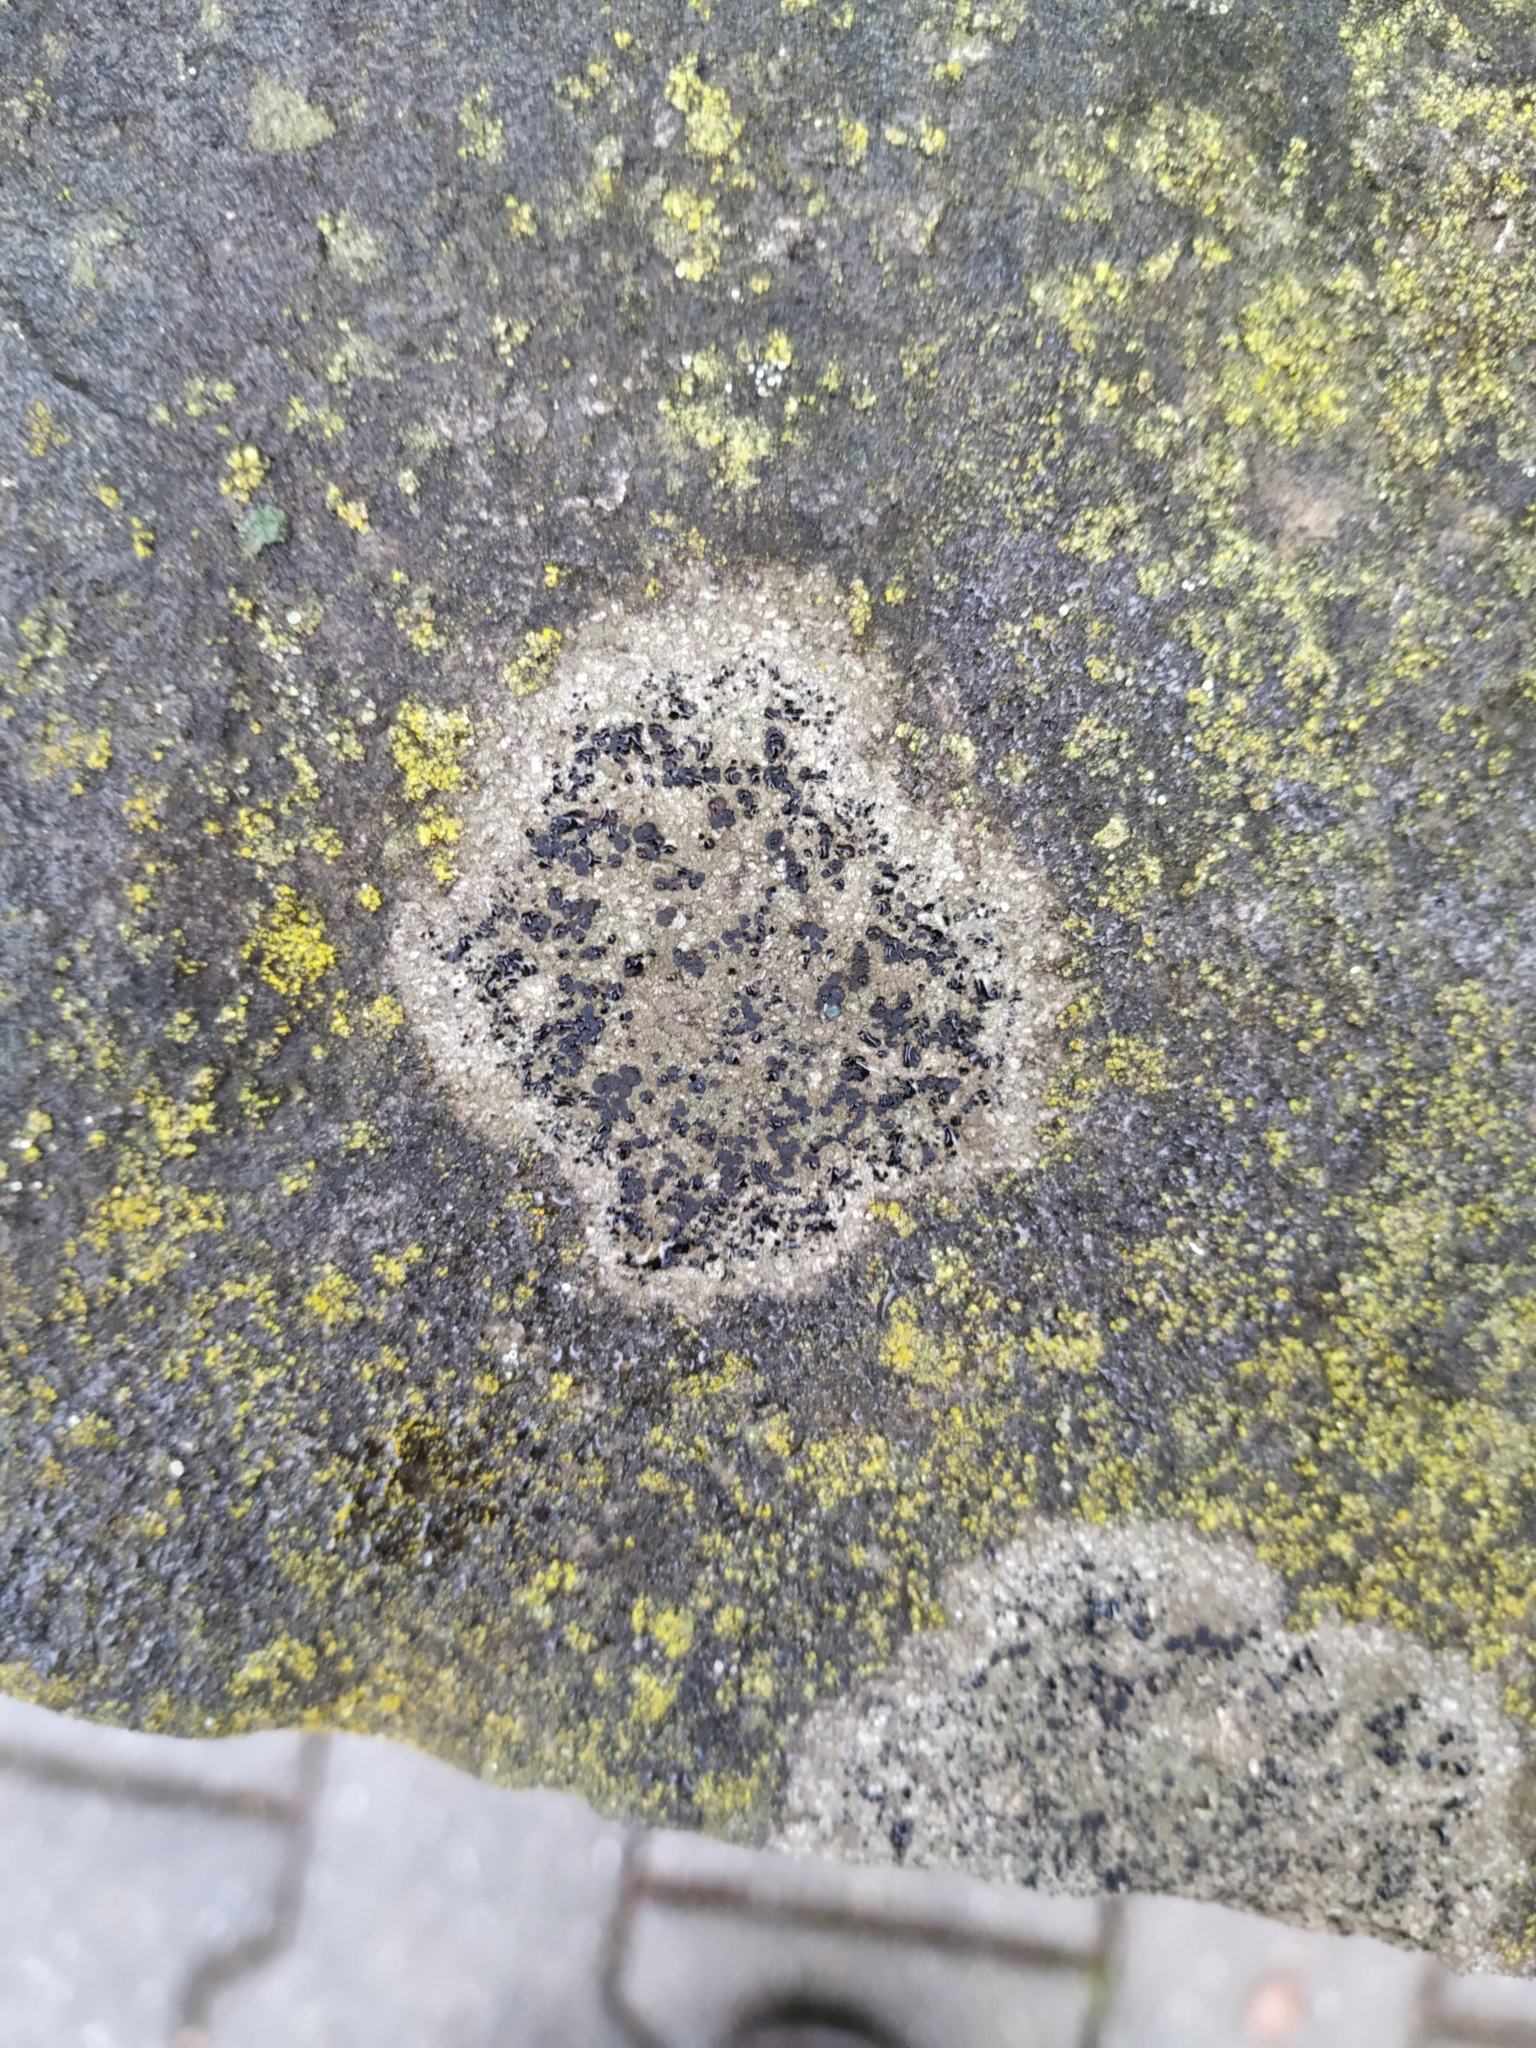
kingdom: Fungi
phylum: Ascomycota
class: Lecanoromycetes
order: Lecanorales
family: Lecanoraceae
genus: Lecidella
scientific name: Lecidella stigmatea
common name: Limestone disc lichen
